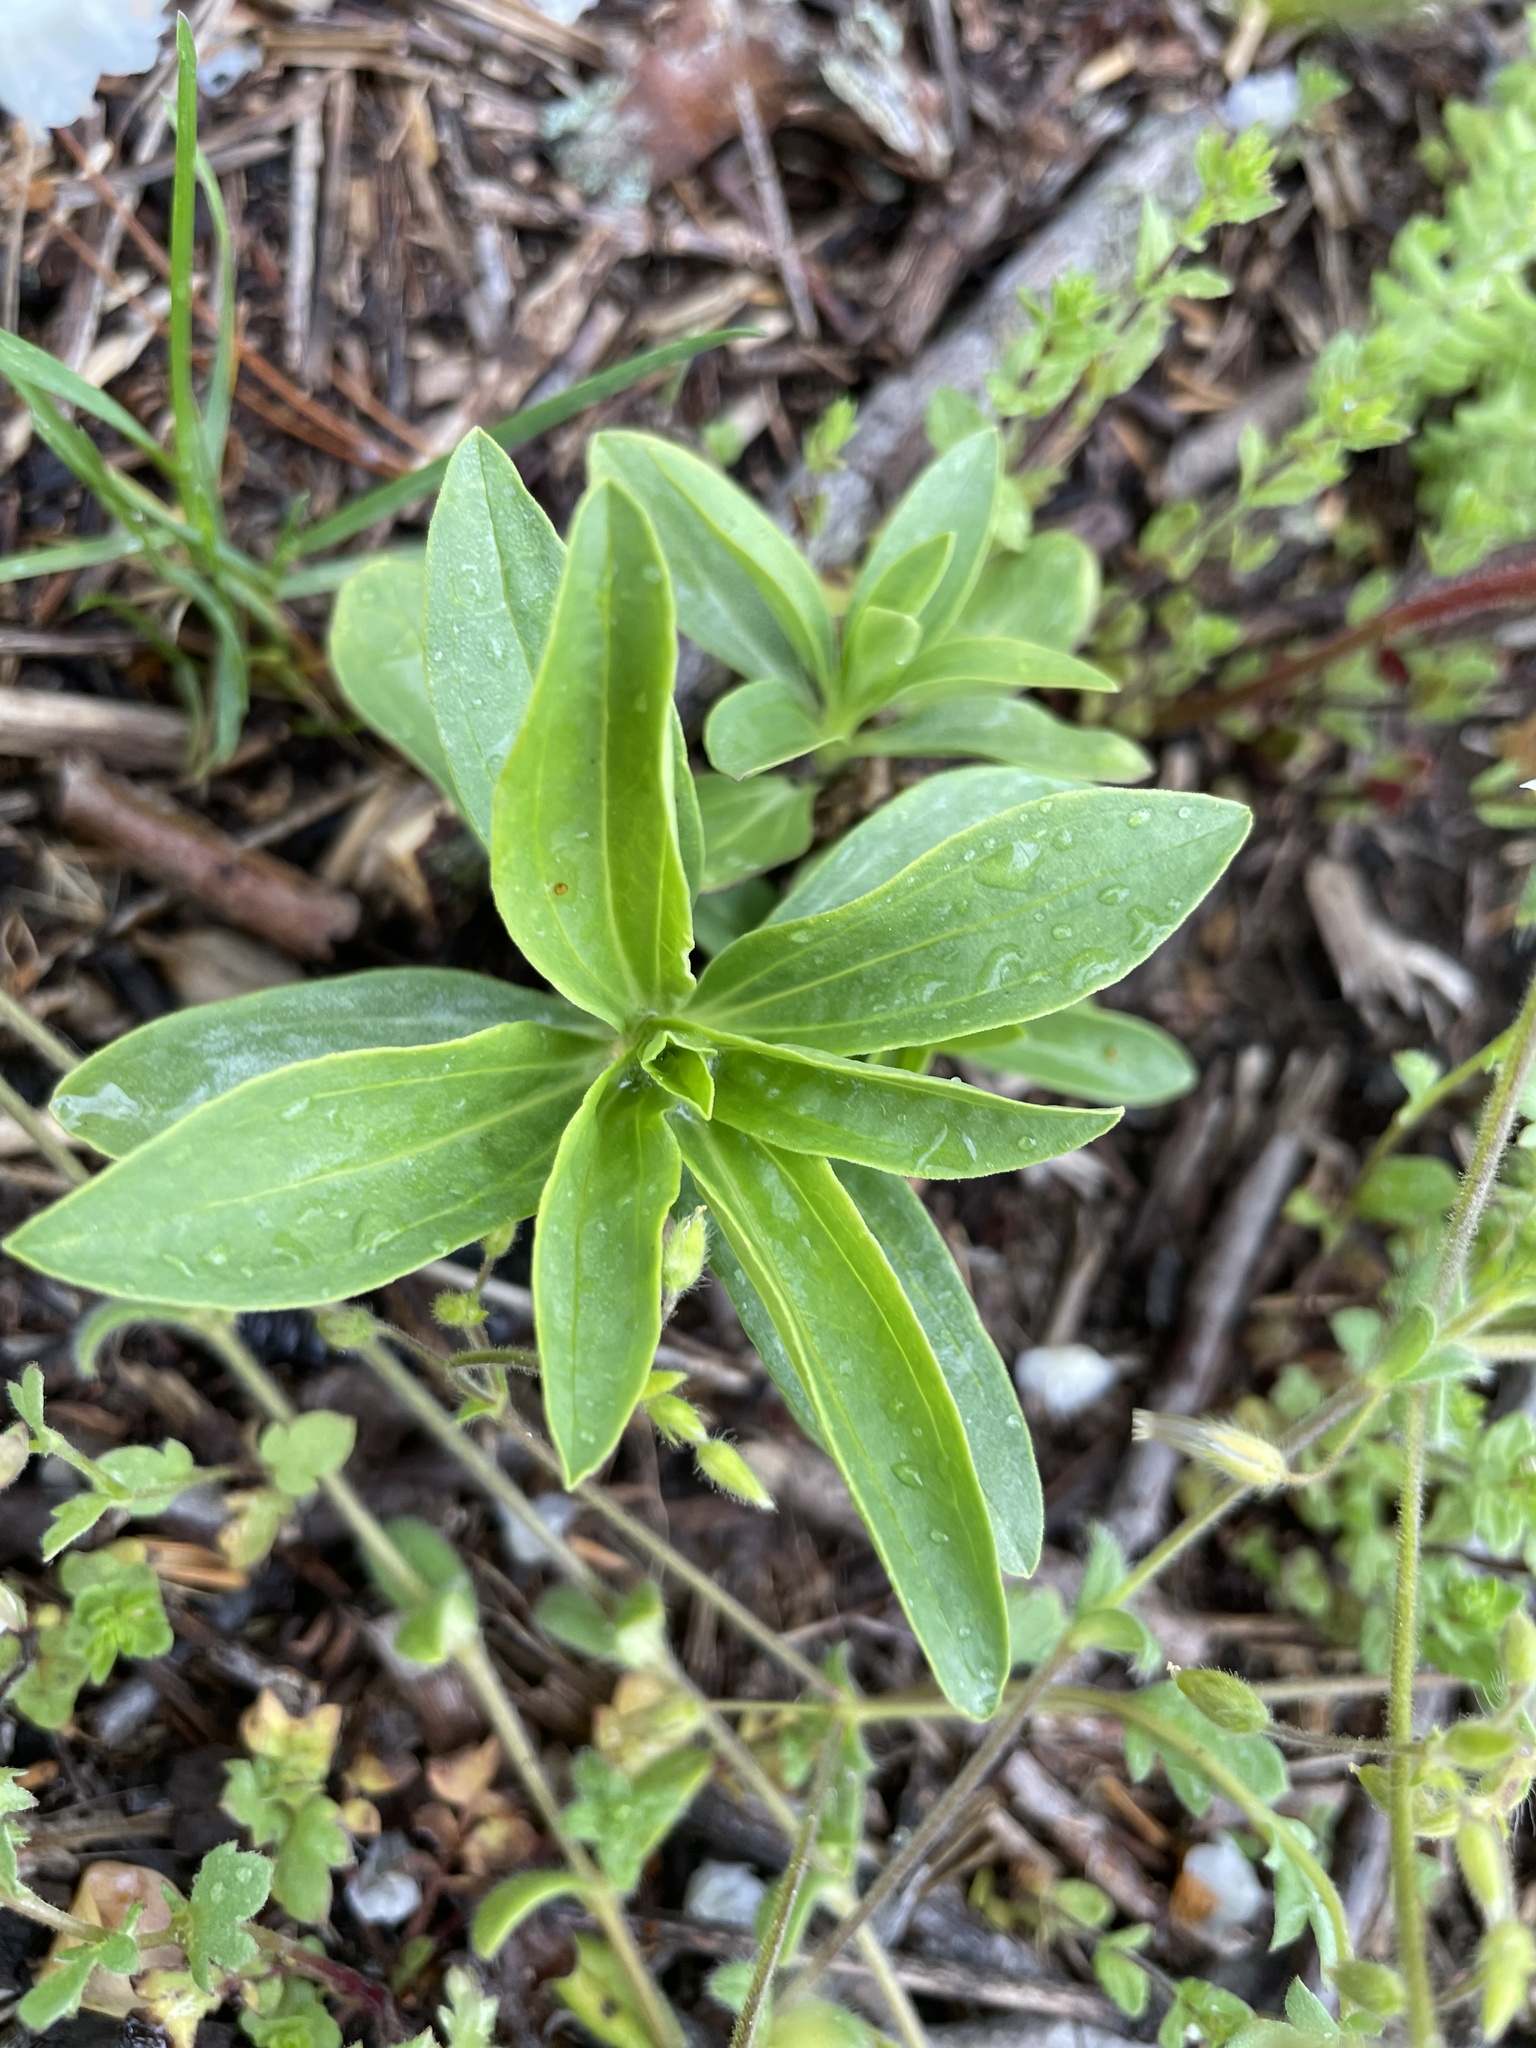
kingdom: Plantae
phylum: Tracheophyta
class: Magnoliopsida
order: Caryophyllales
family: Caryophyllaceae
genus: Saponaria
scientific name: Saponaria officinalis
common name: Soapwort
